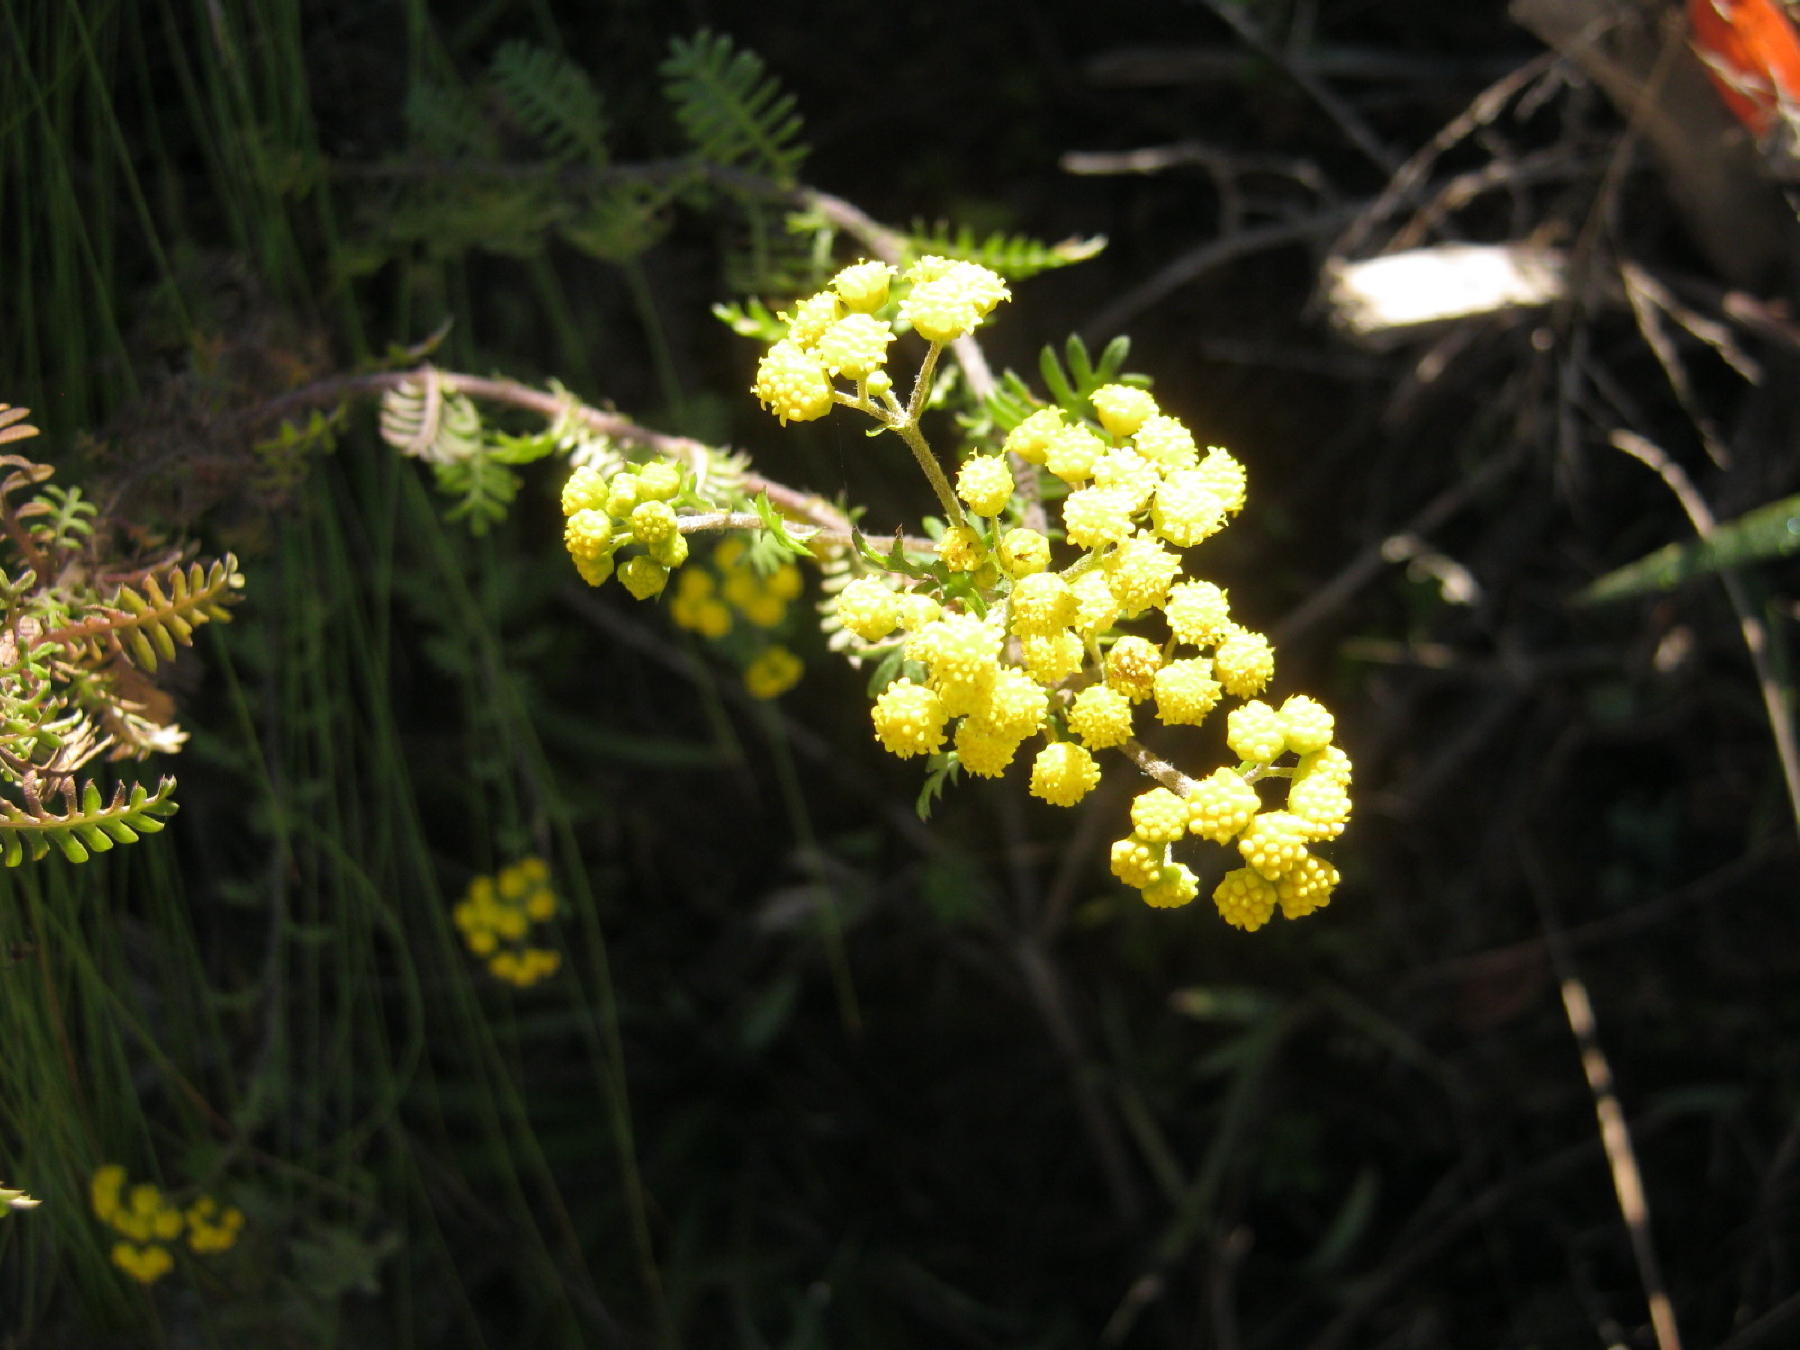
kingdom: Plantae
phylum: Tracheophyta
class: Magnoliopsida
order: Asterales
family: Asteraceae
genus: Hippia
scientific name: Hippia frutescens
